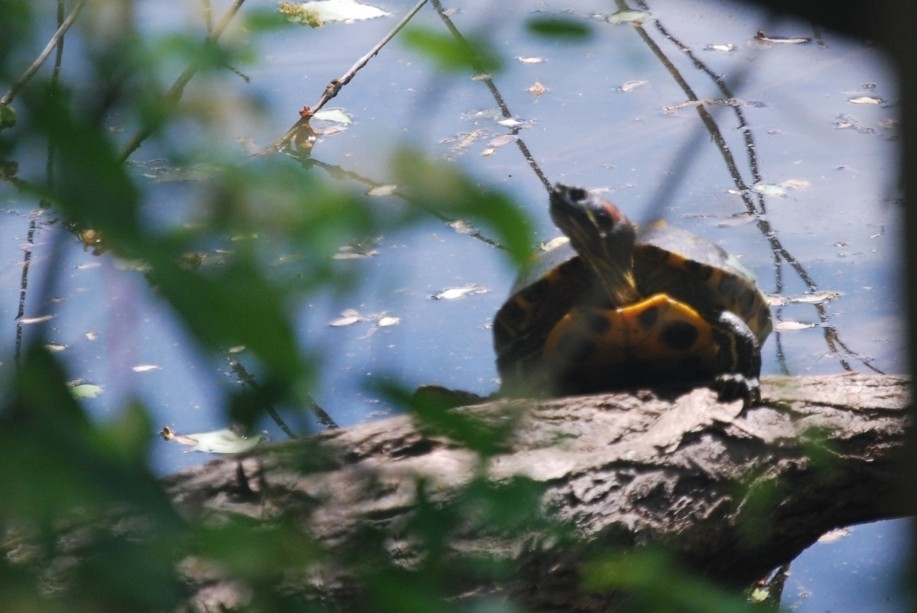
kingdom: Animalia
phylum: Chordata
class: Testudines
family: Emydidae
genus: Trachemys
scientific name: Trachemys scripta
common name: Slider
